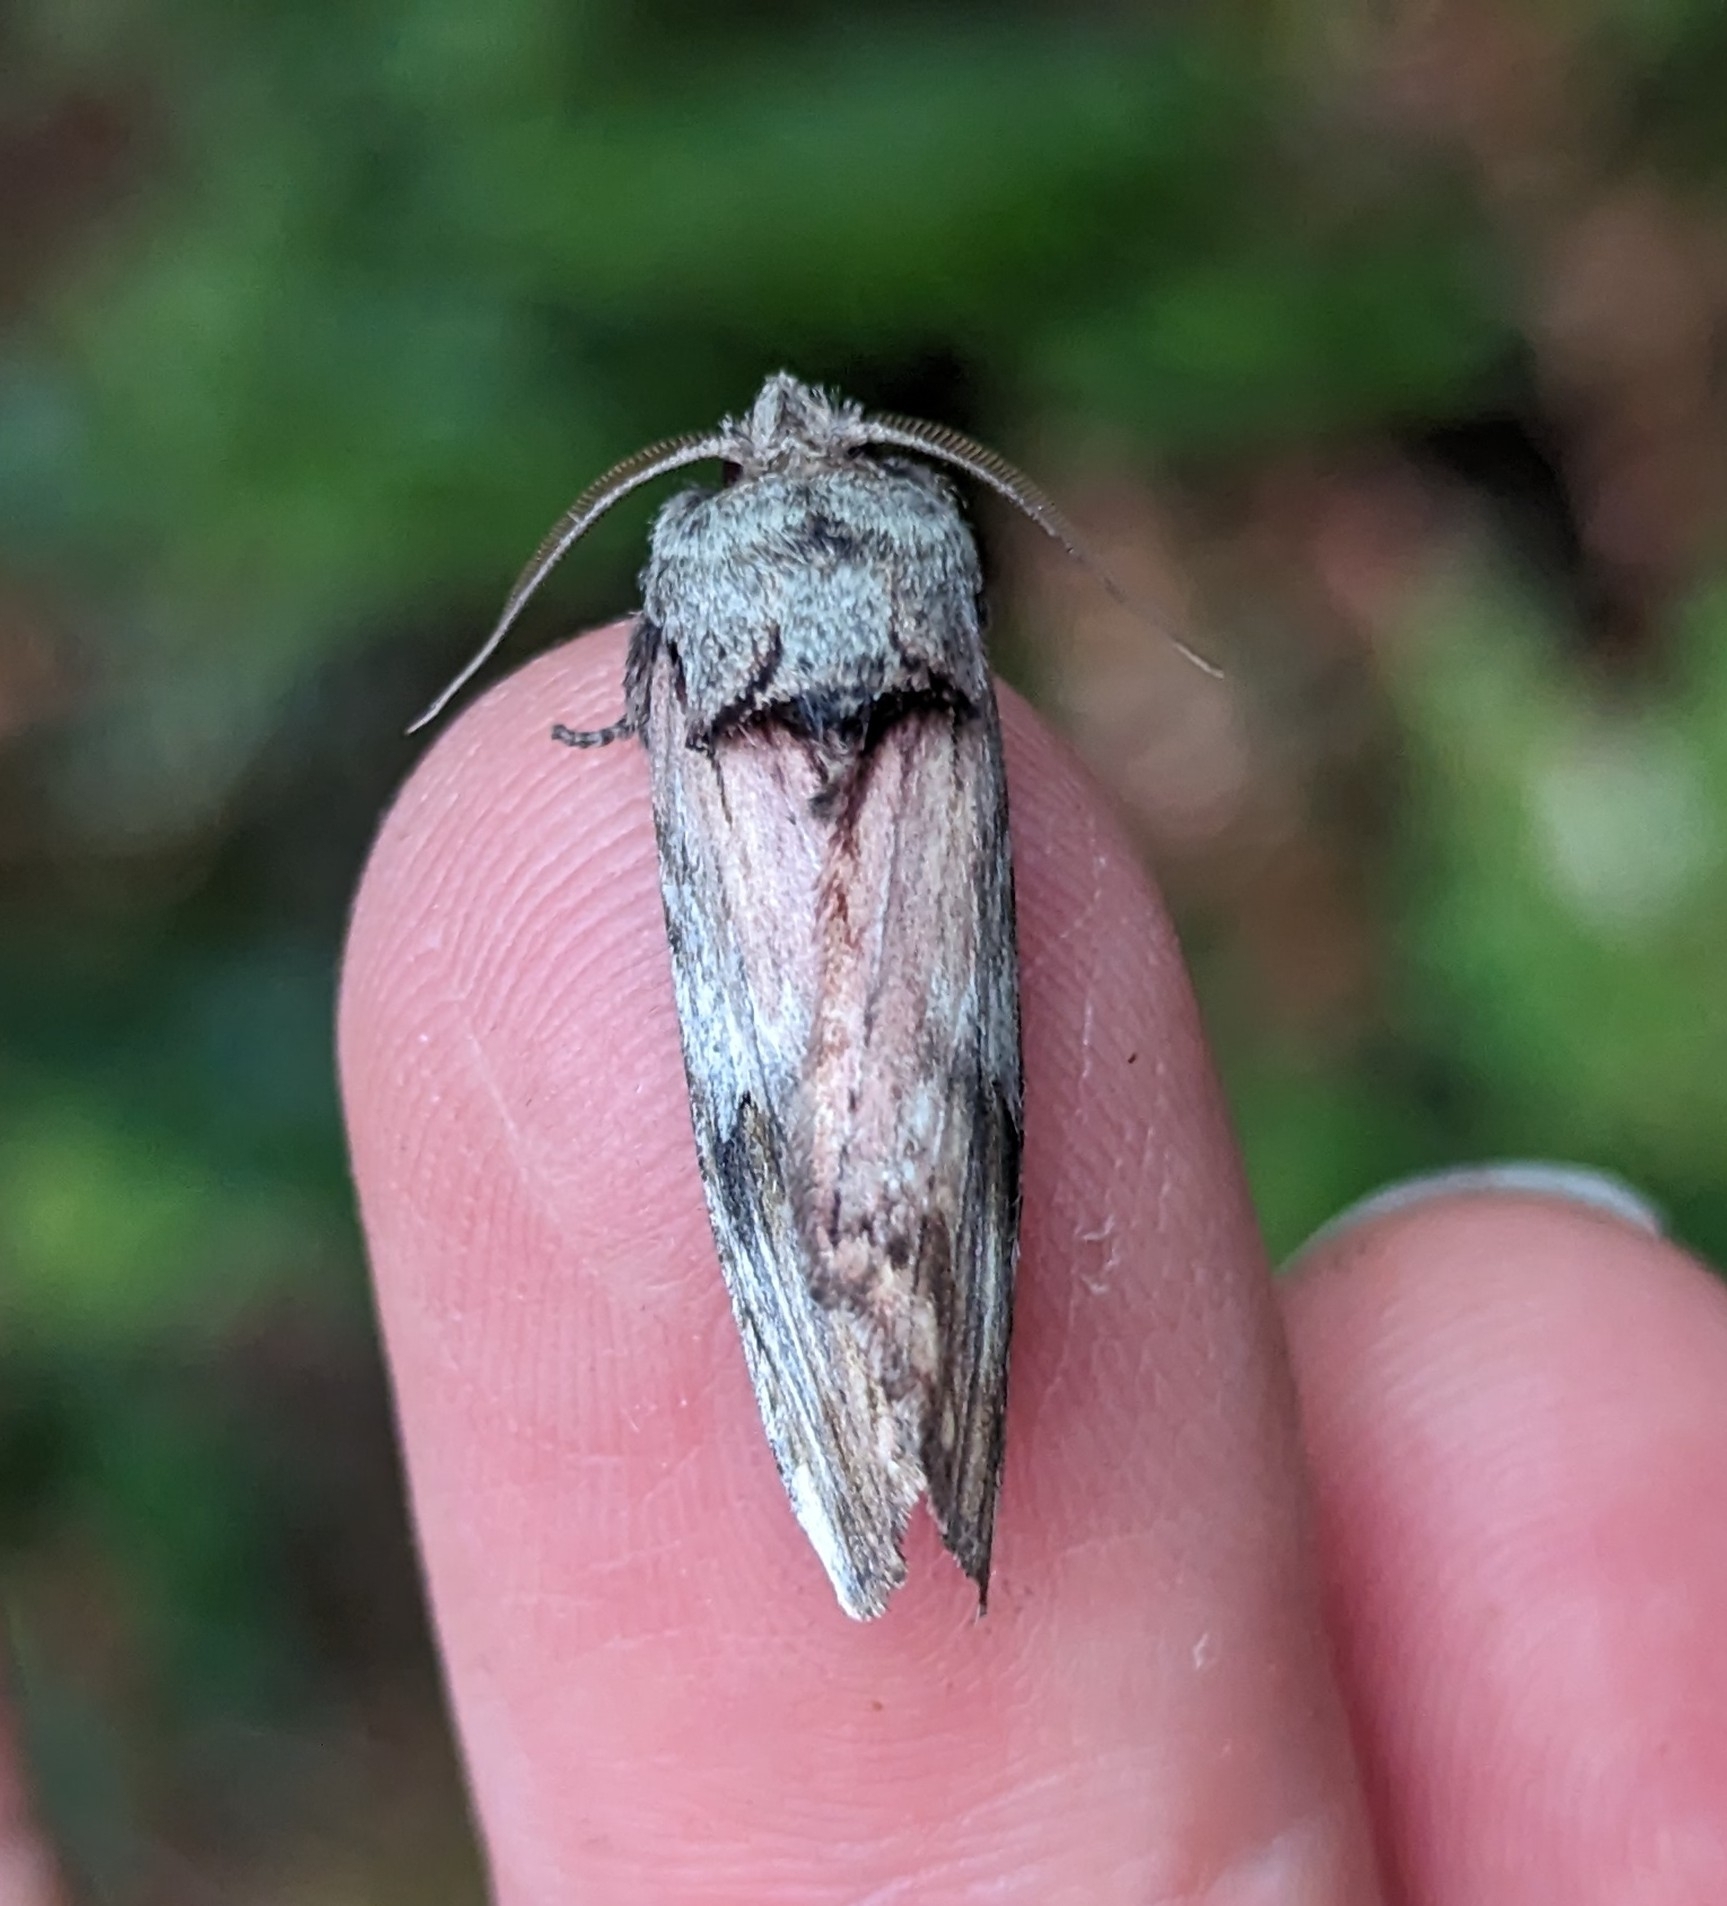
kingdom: Animalia
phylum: Arthropoda
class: Insecta
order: Lepidoptera
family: Notodontidae
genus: Schizura
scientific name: Schizura
